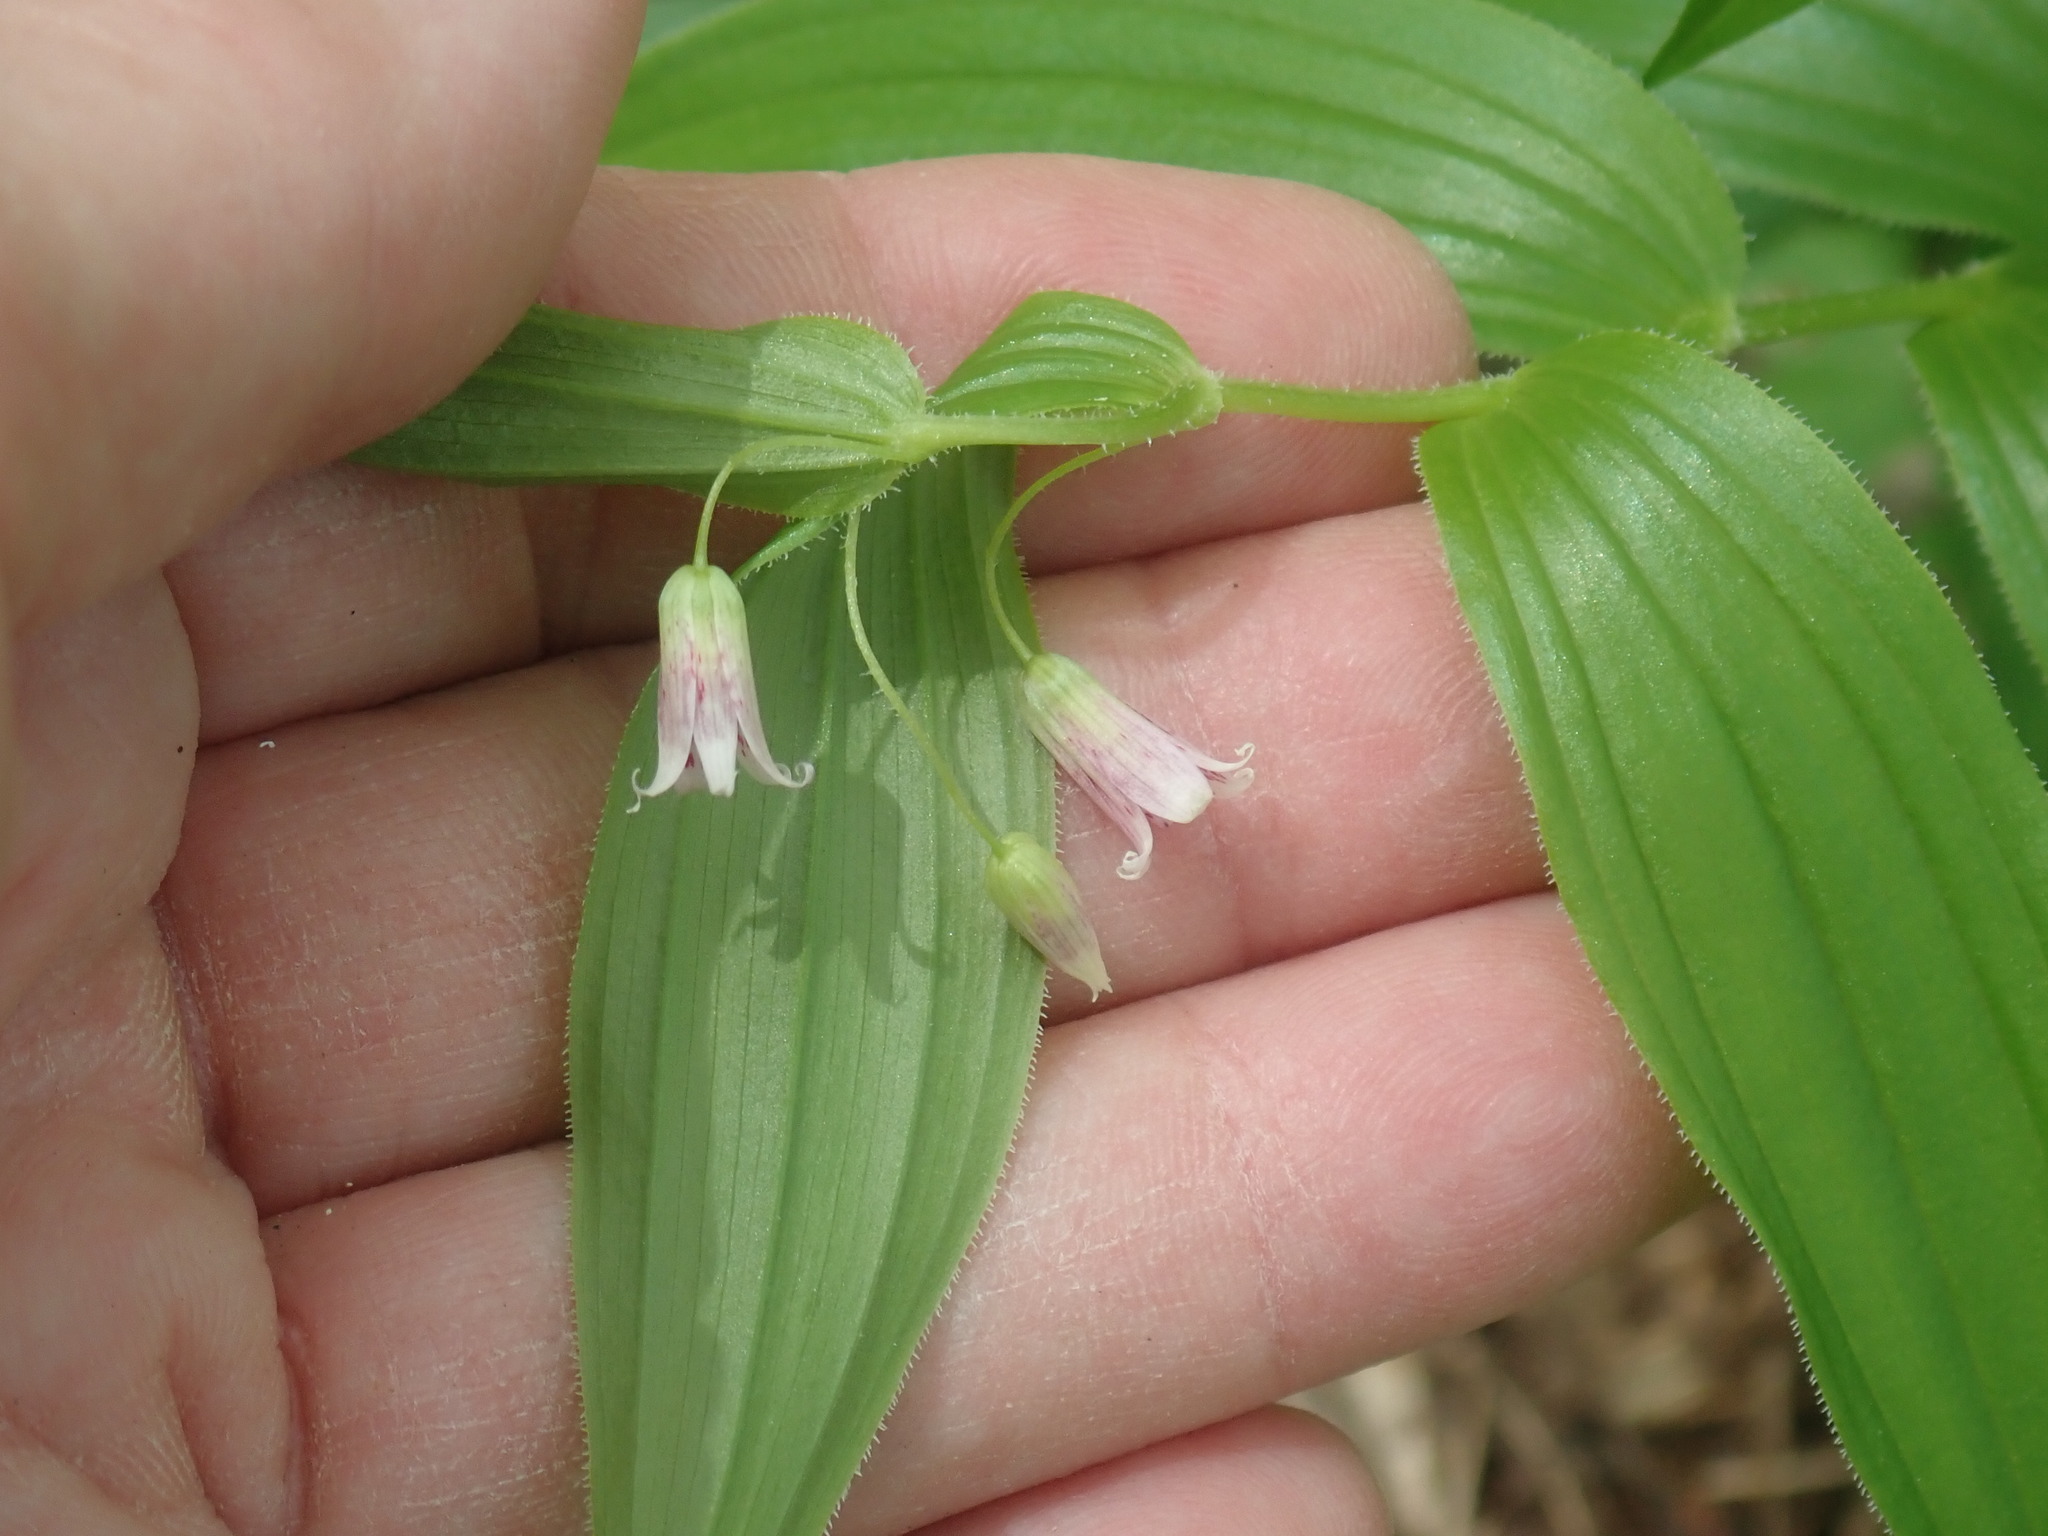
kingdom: Plantae
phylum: Tracheophyta
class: Liliopsida
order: Liliales
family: Liliaceae
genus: Streptopus
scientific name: Streptopus lanceolatus
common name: Rose mandarin
